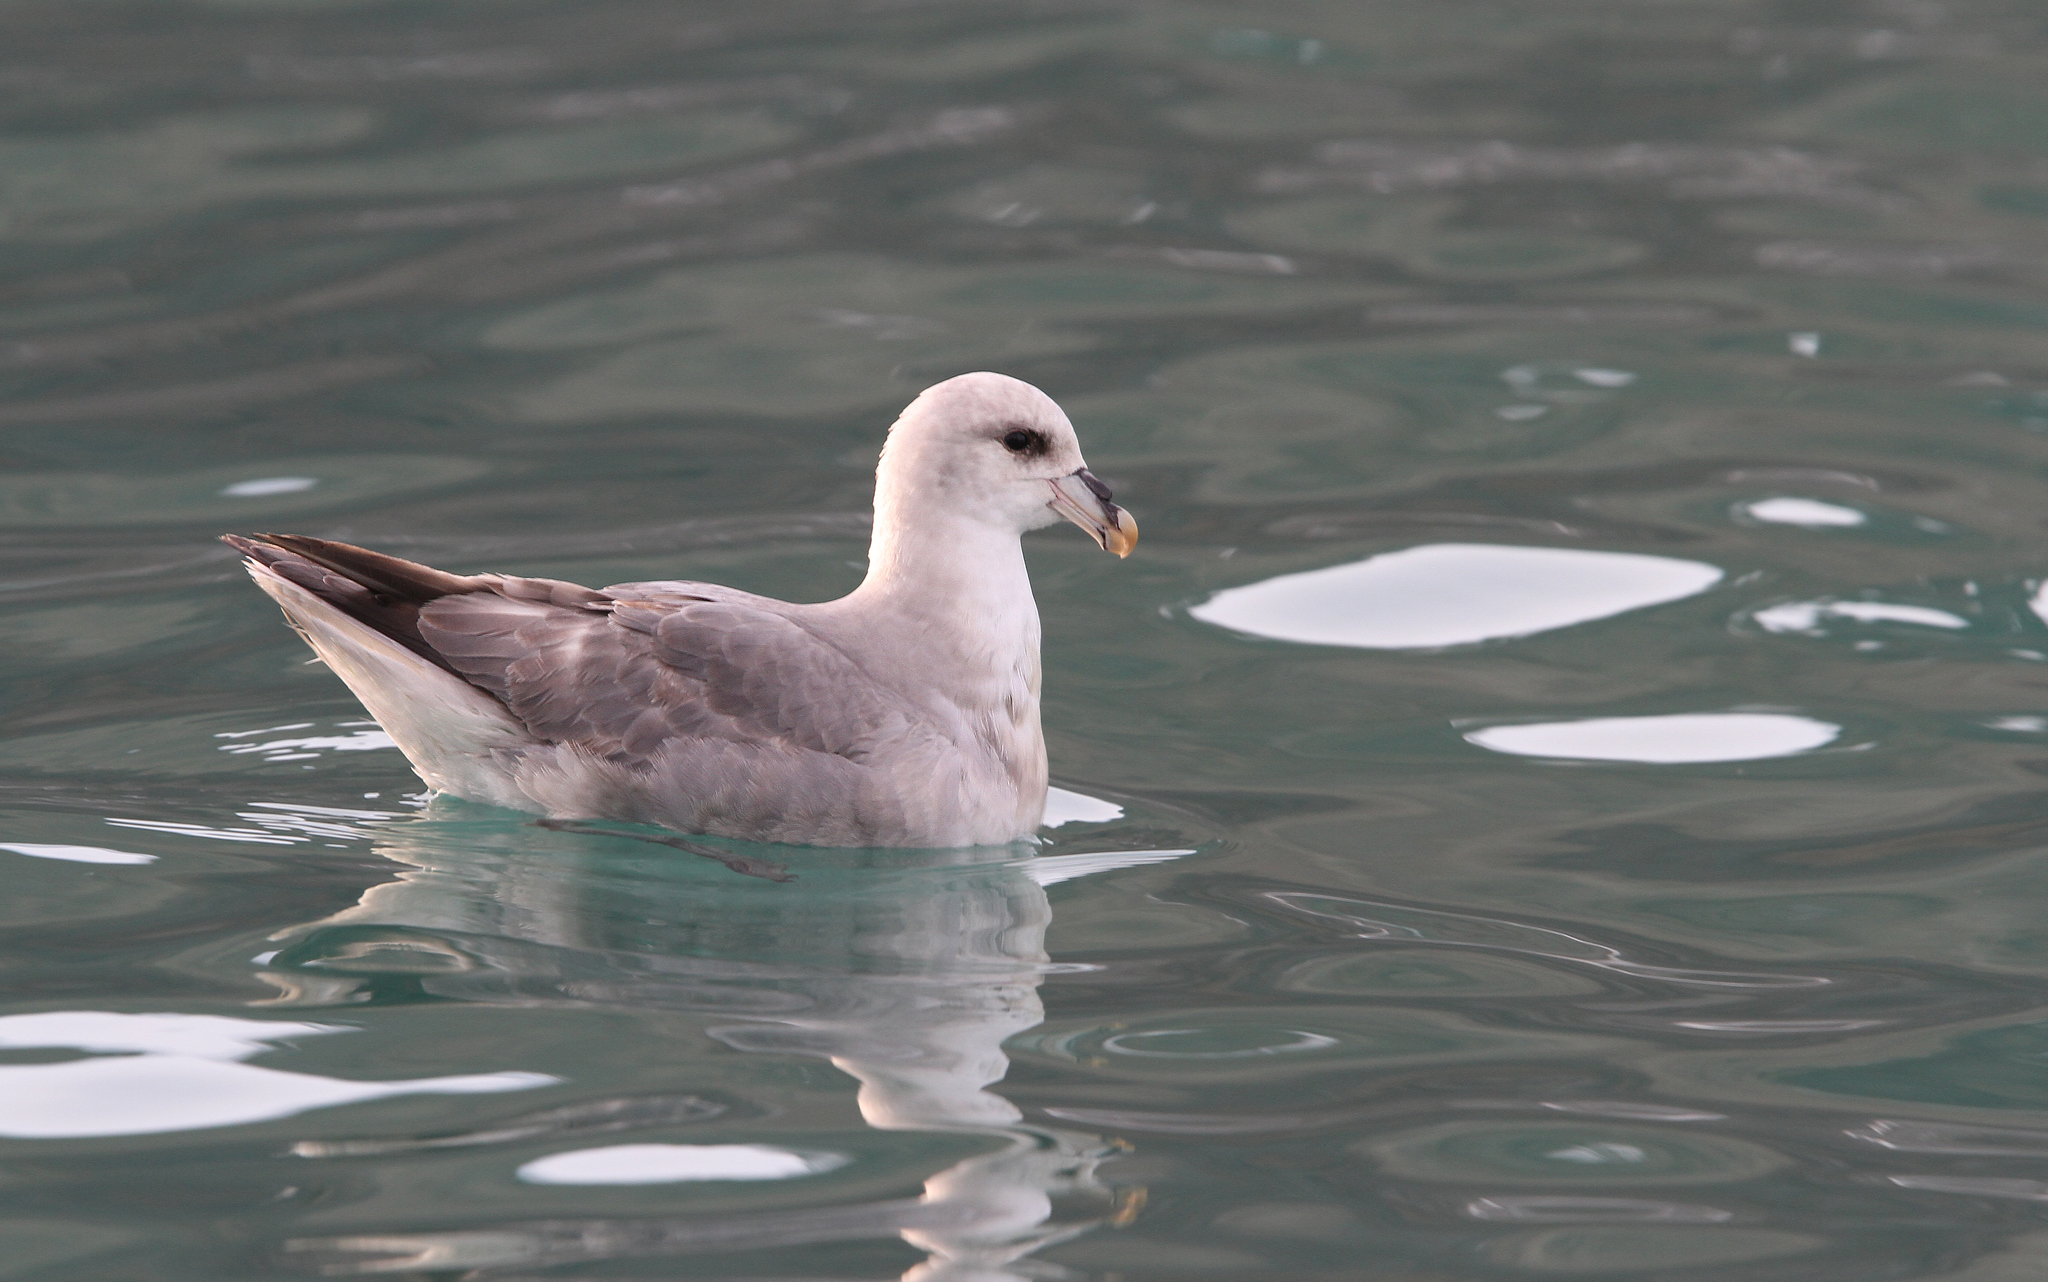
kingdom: Animalia
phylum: Chordata
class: Aves
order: Procellariiformes
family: Procellariidae
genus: Fulmarus
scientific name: Fulmarus glacialis
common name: Northern fulmar
